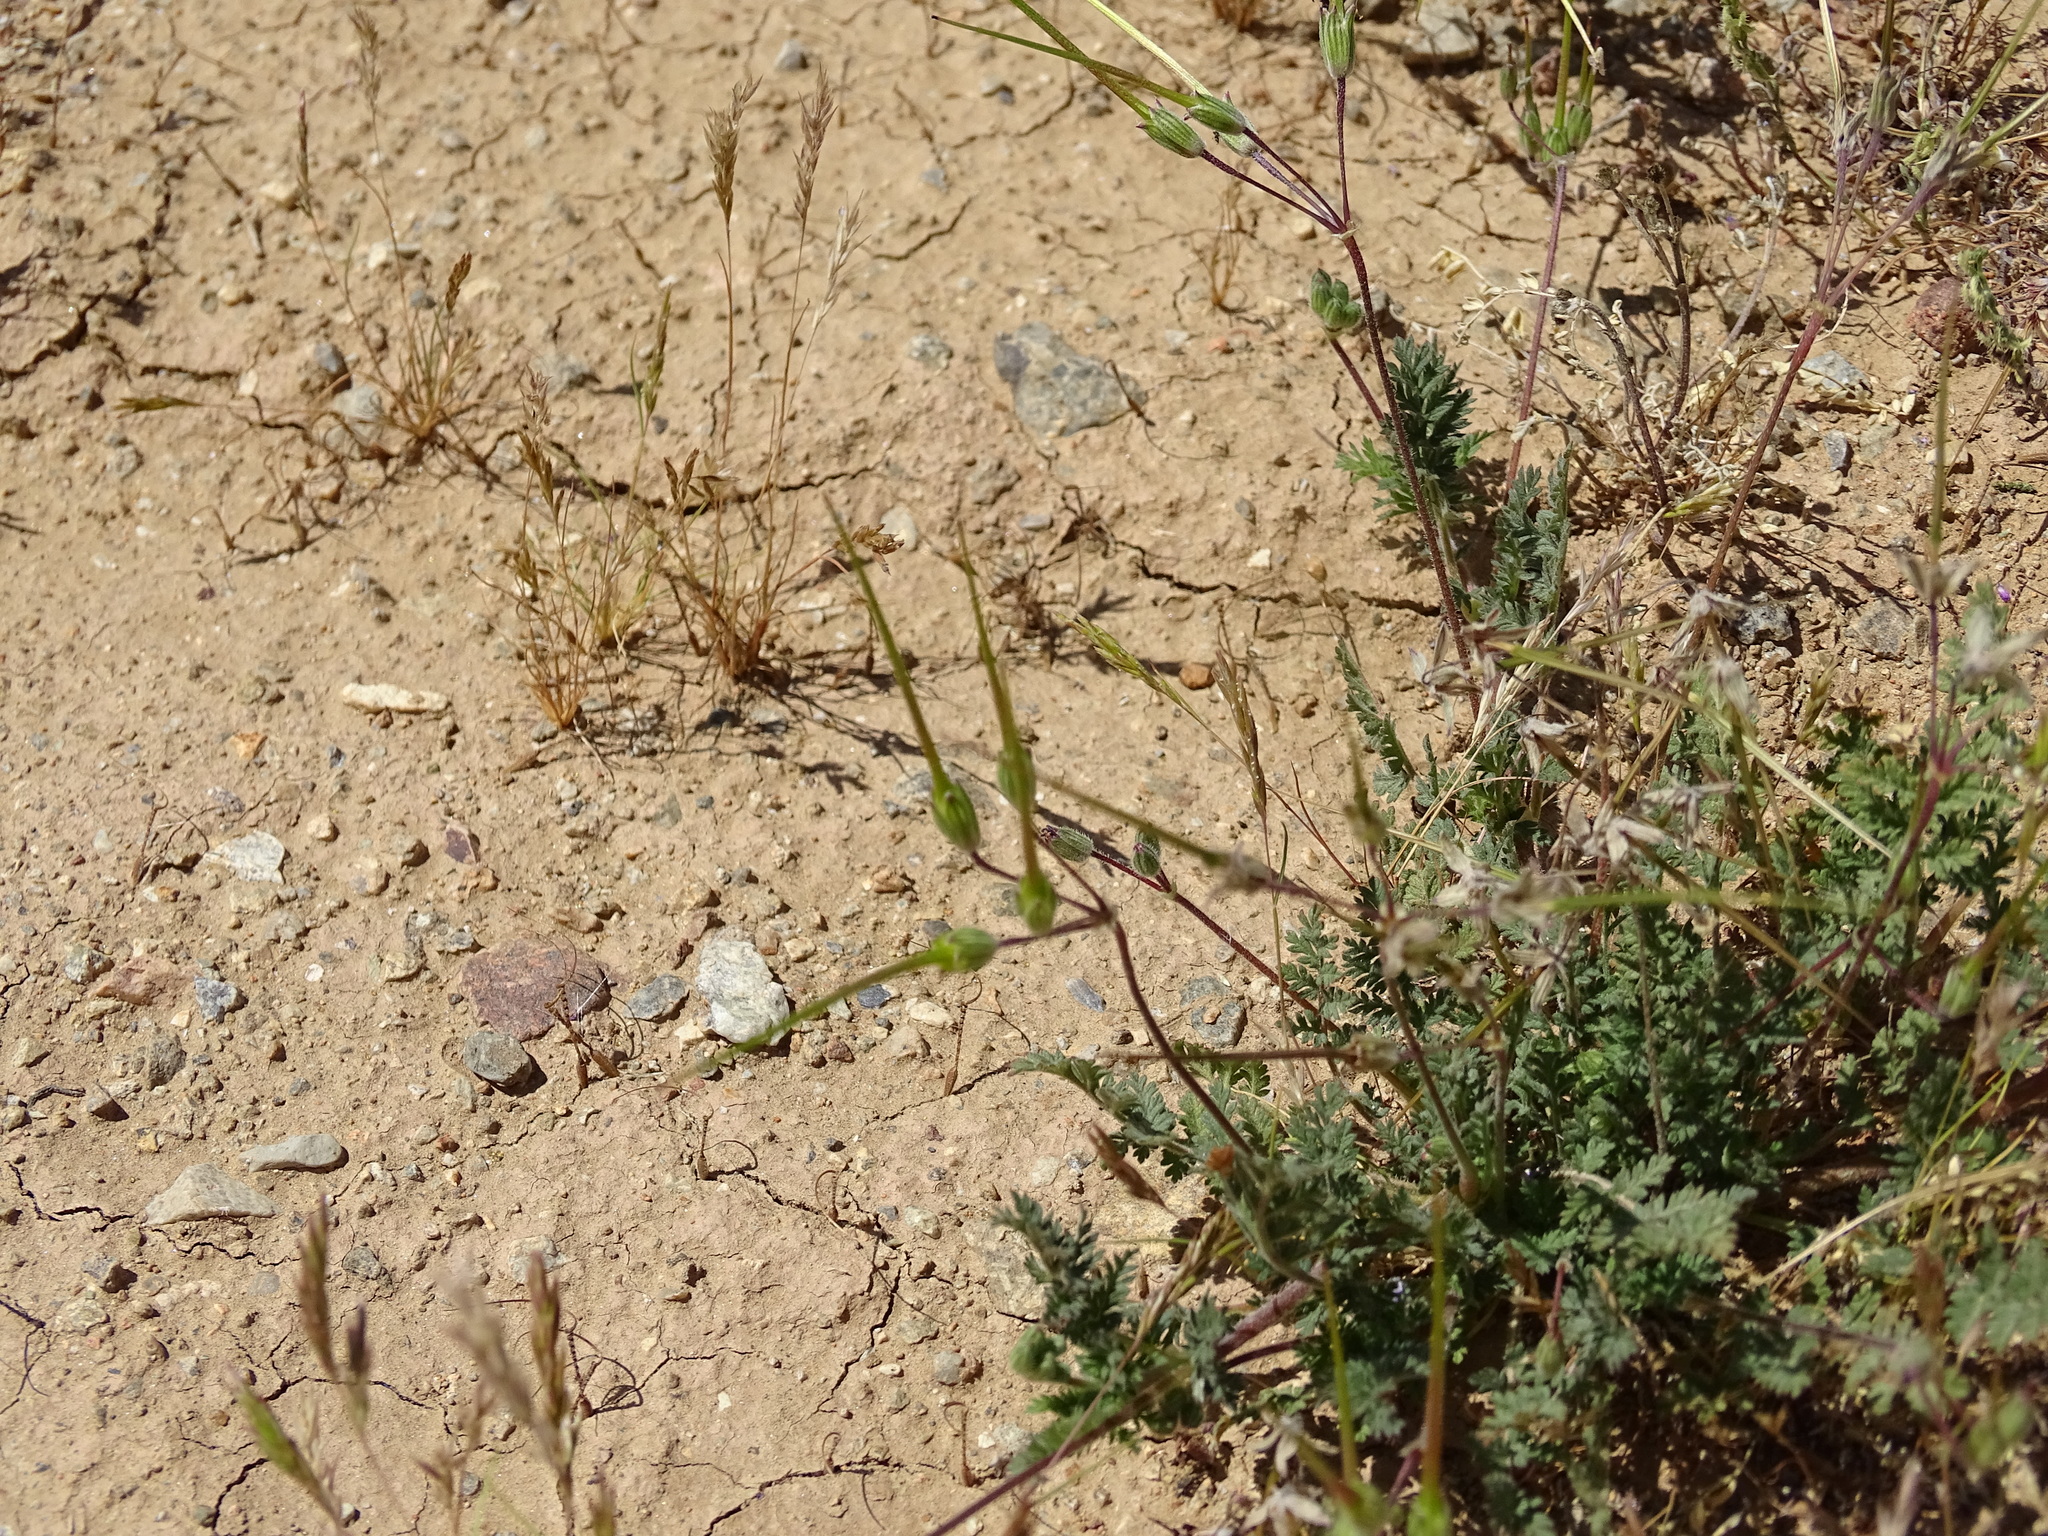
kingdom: Plantae
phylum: Tracheophyta
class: Magnoliopsida
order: Geraniales
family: Geraniaceae
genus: Erodium
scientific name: Erodium cicutarium
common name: Common stork's-bill
